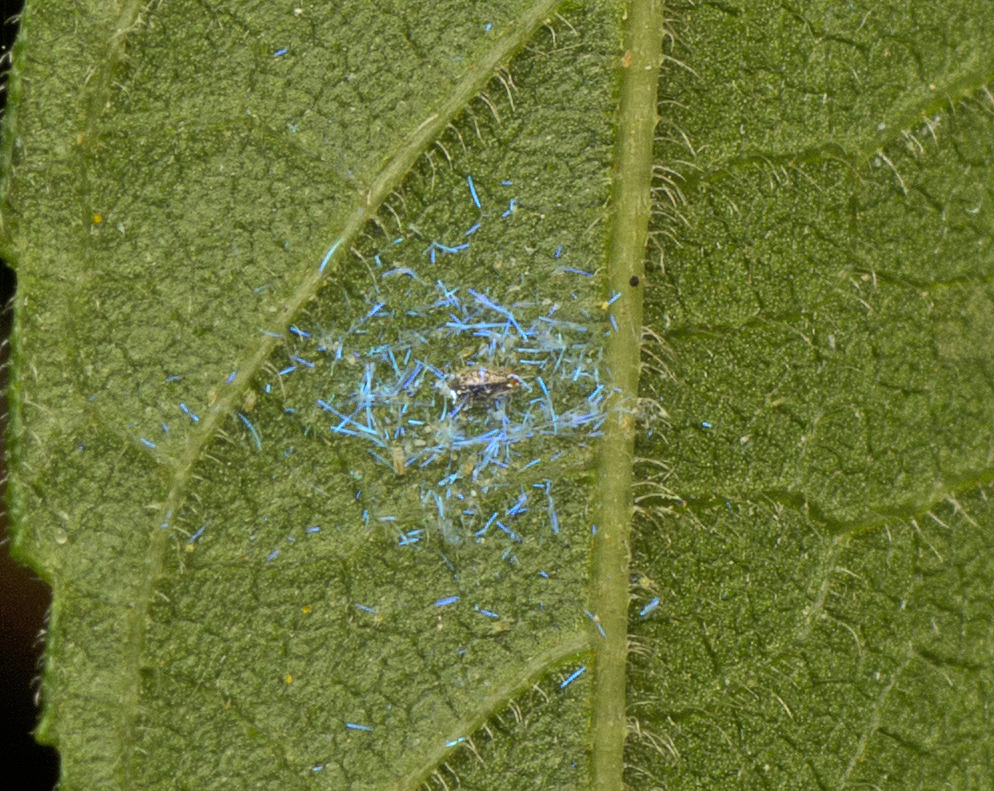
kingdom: Animalia
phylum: Arthropoda
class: Insecta
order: Hemiptera
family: Aleyrodidae
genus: Dialeuropora
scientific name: Dialeuropora decempuncta
